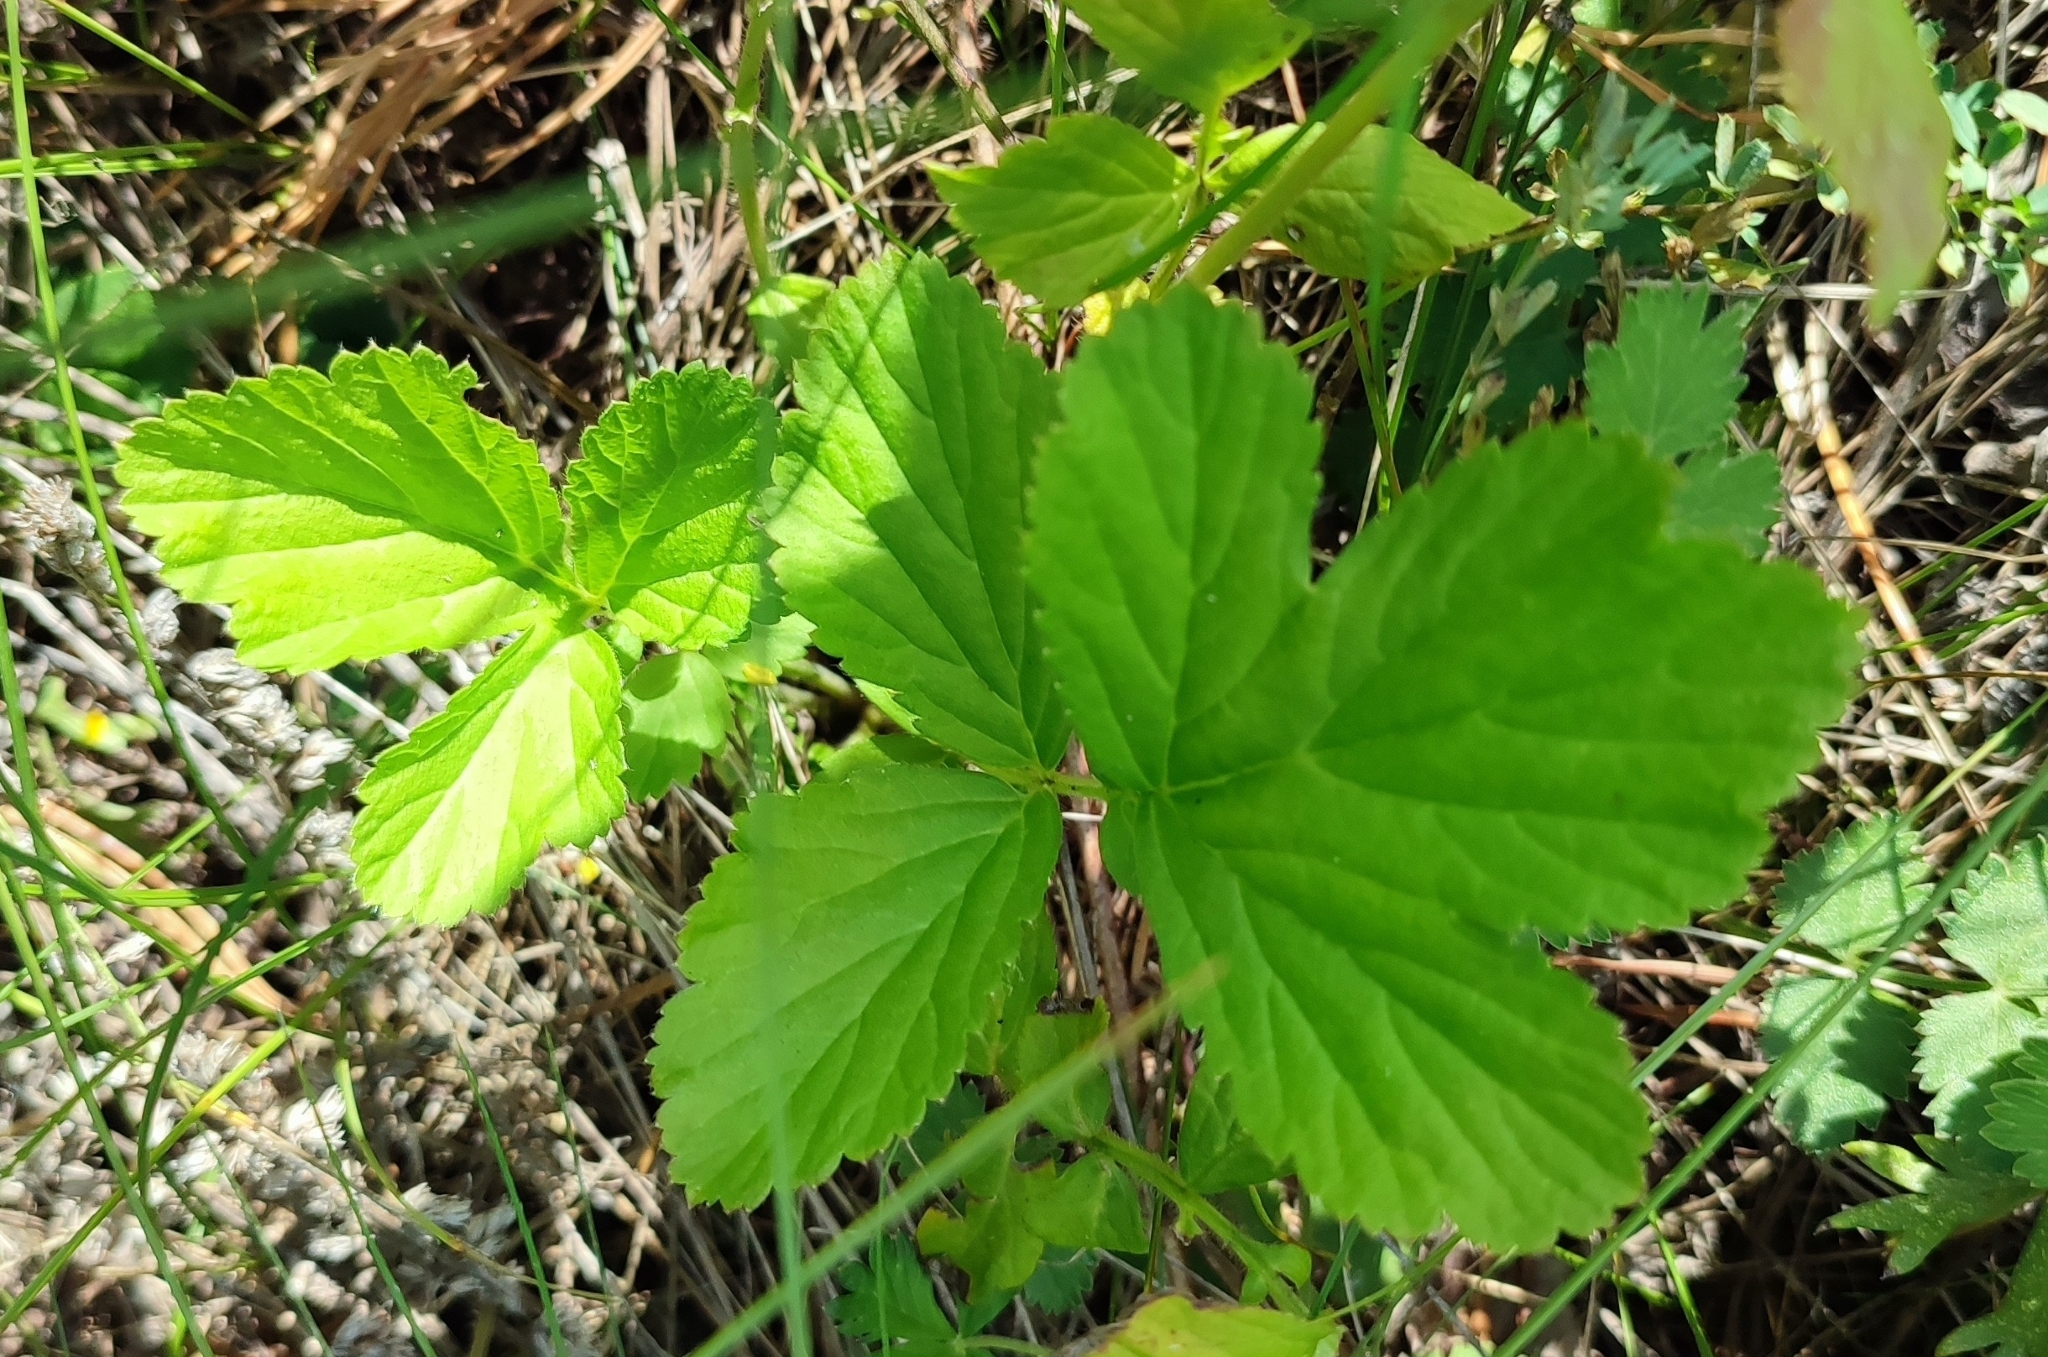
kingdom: Plantae
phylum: Tracheophyta
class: Magnoliopsida
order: Rosales
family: Rosaceae
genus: Geum
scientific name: Geum aleppicum
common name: Yellow avens
